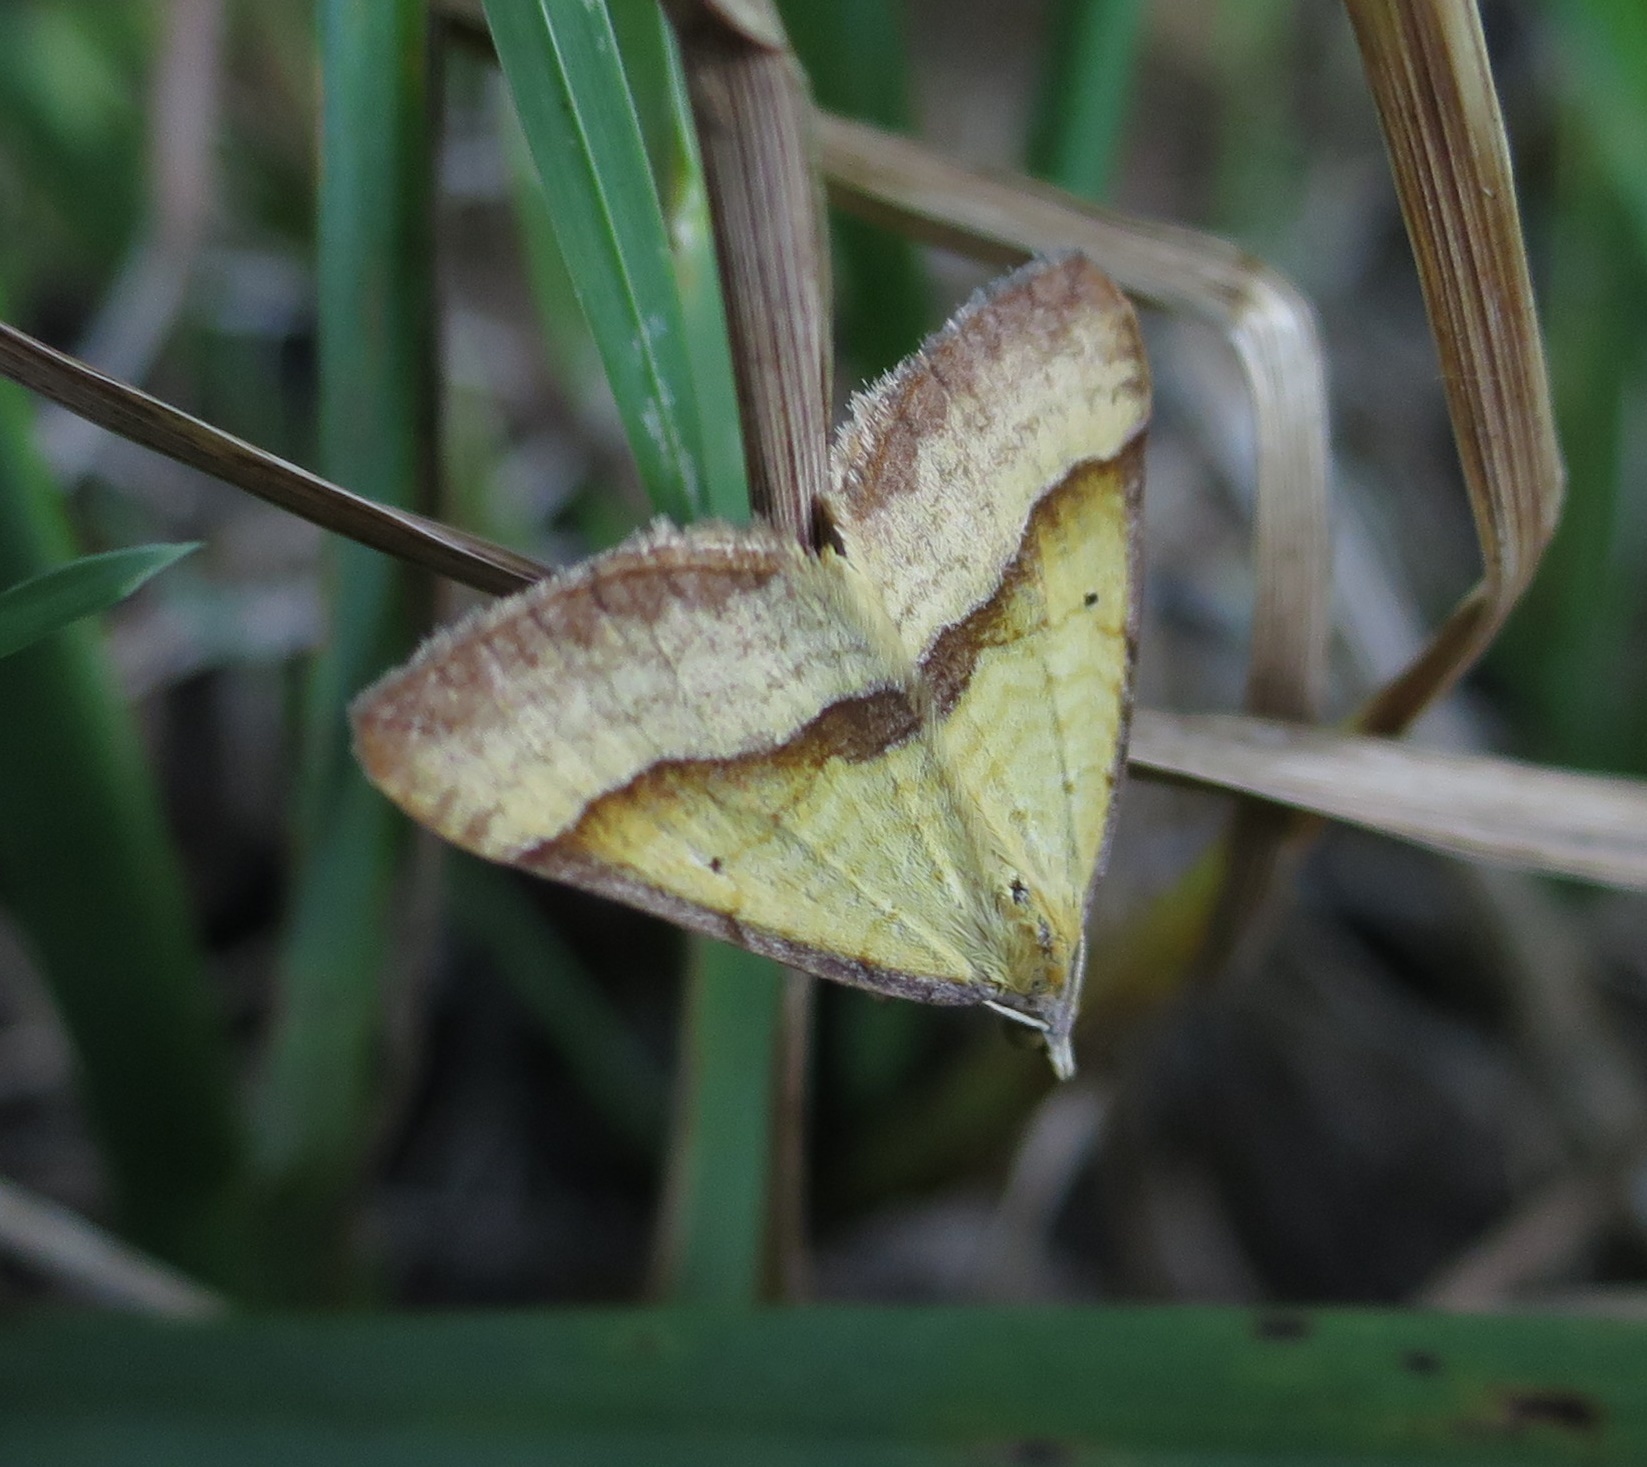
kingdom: Animalia
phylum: Arthropoda
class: Insecta
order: Lepidoptera
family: Geometridae
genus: Anachloris
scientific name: Anachloris subochraria
